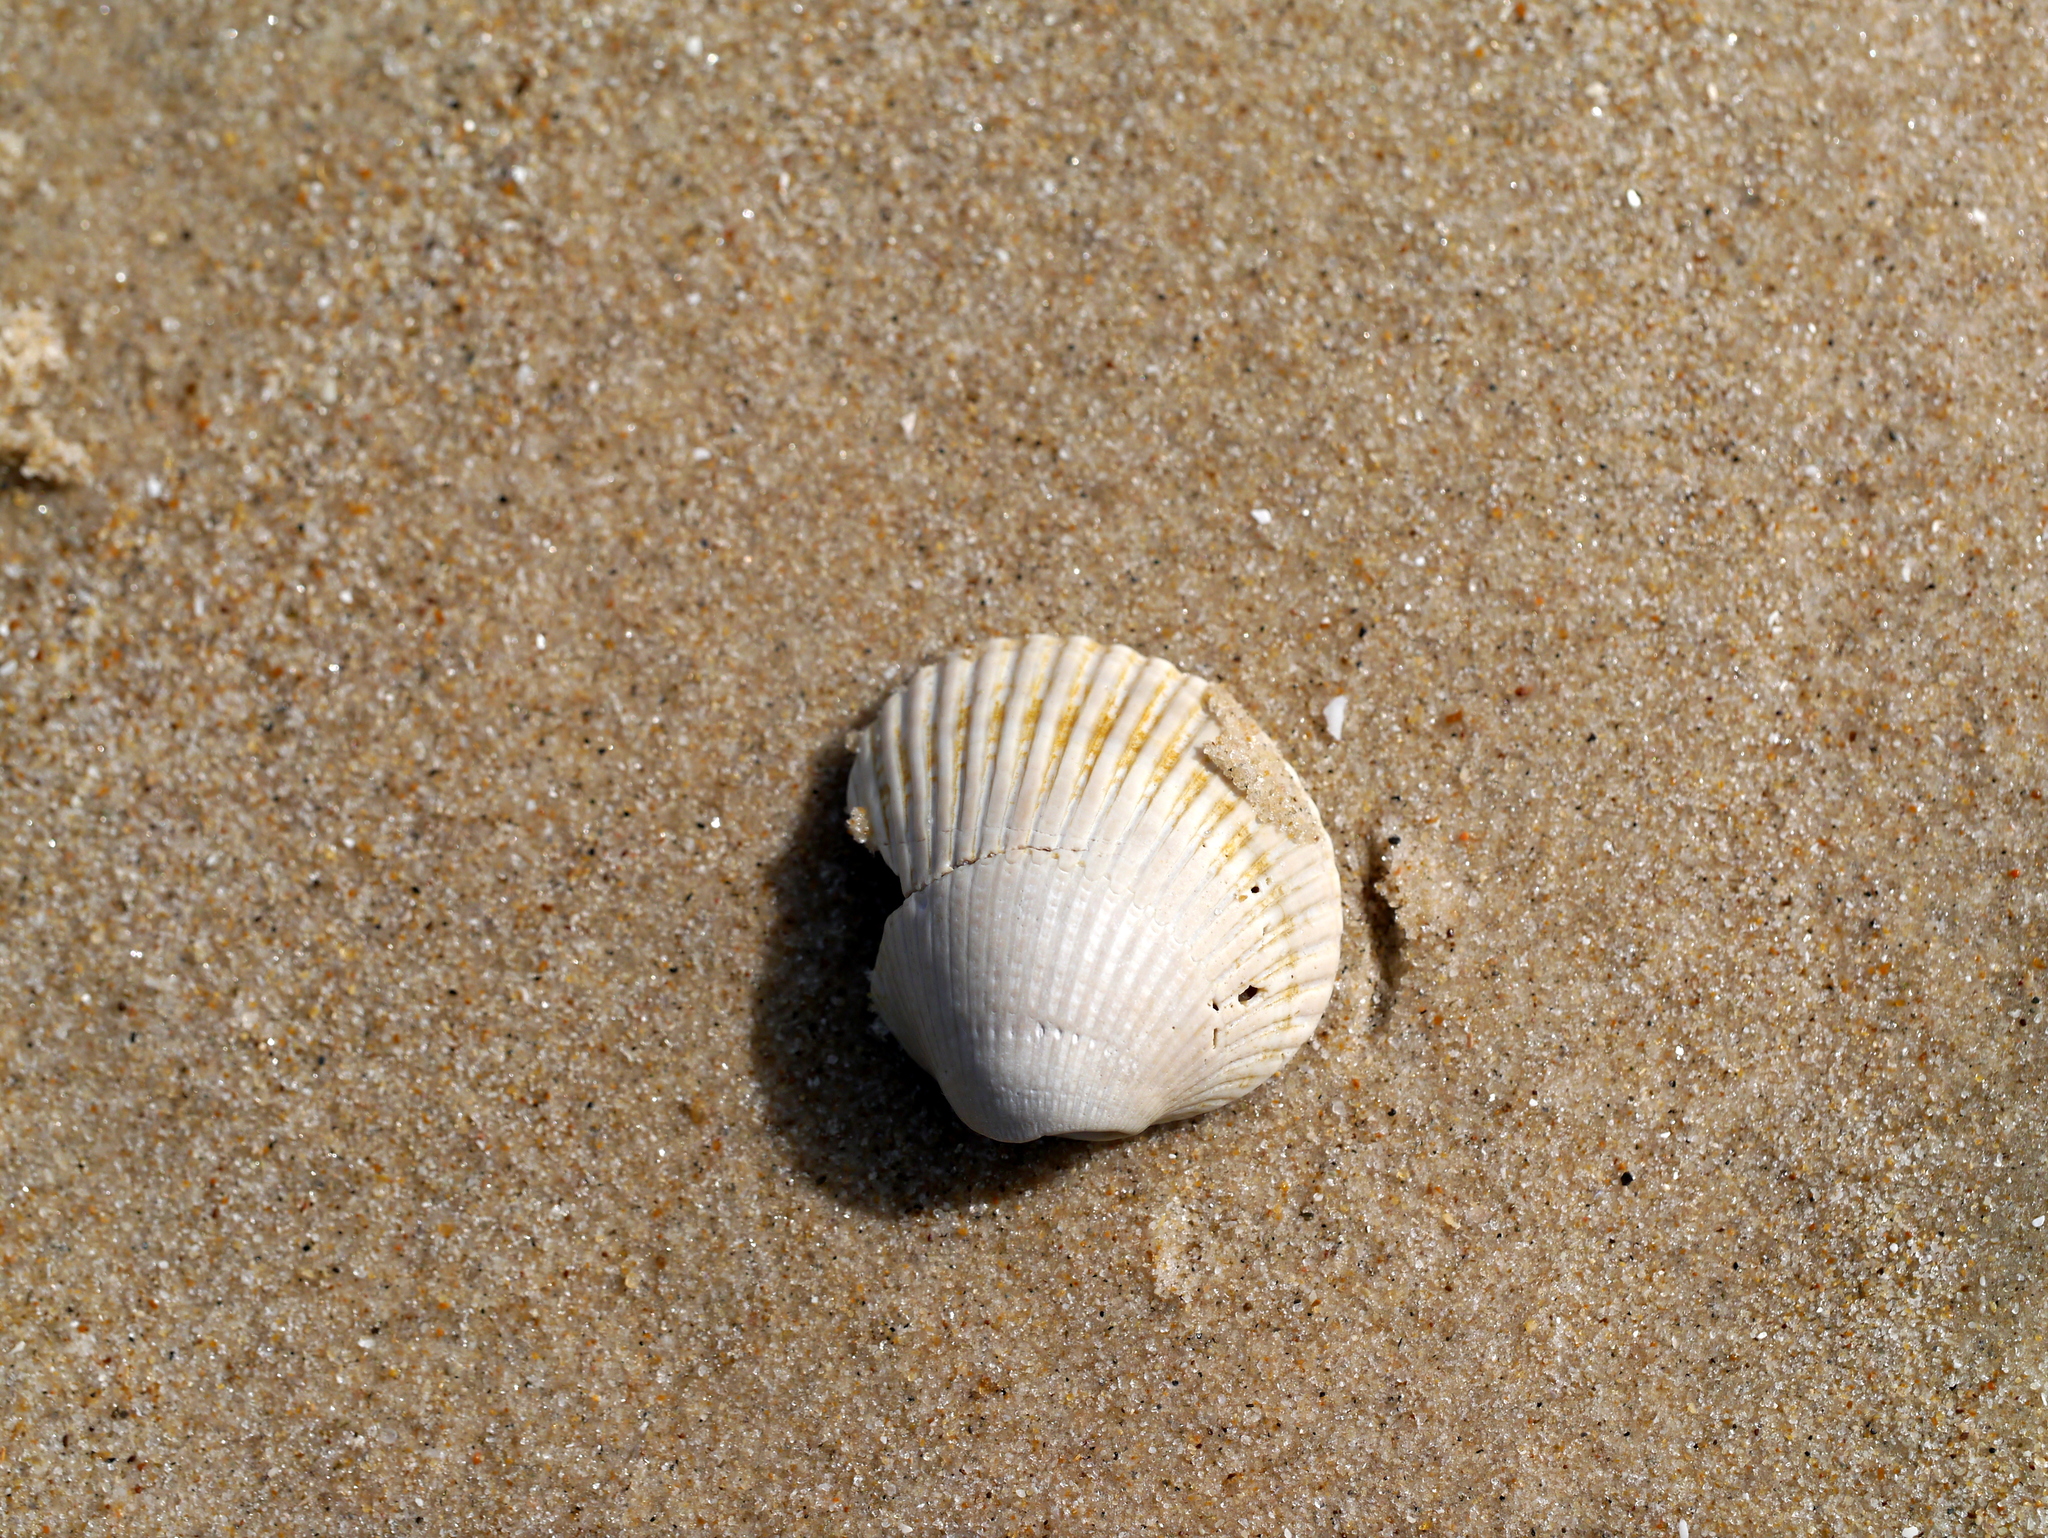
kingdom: Animalia
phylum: Mollusca
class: Bivalvia
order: Arcida
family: Arcidae
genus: Lunarca
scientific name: Lunarca ovalis
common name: Blood ark
